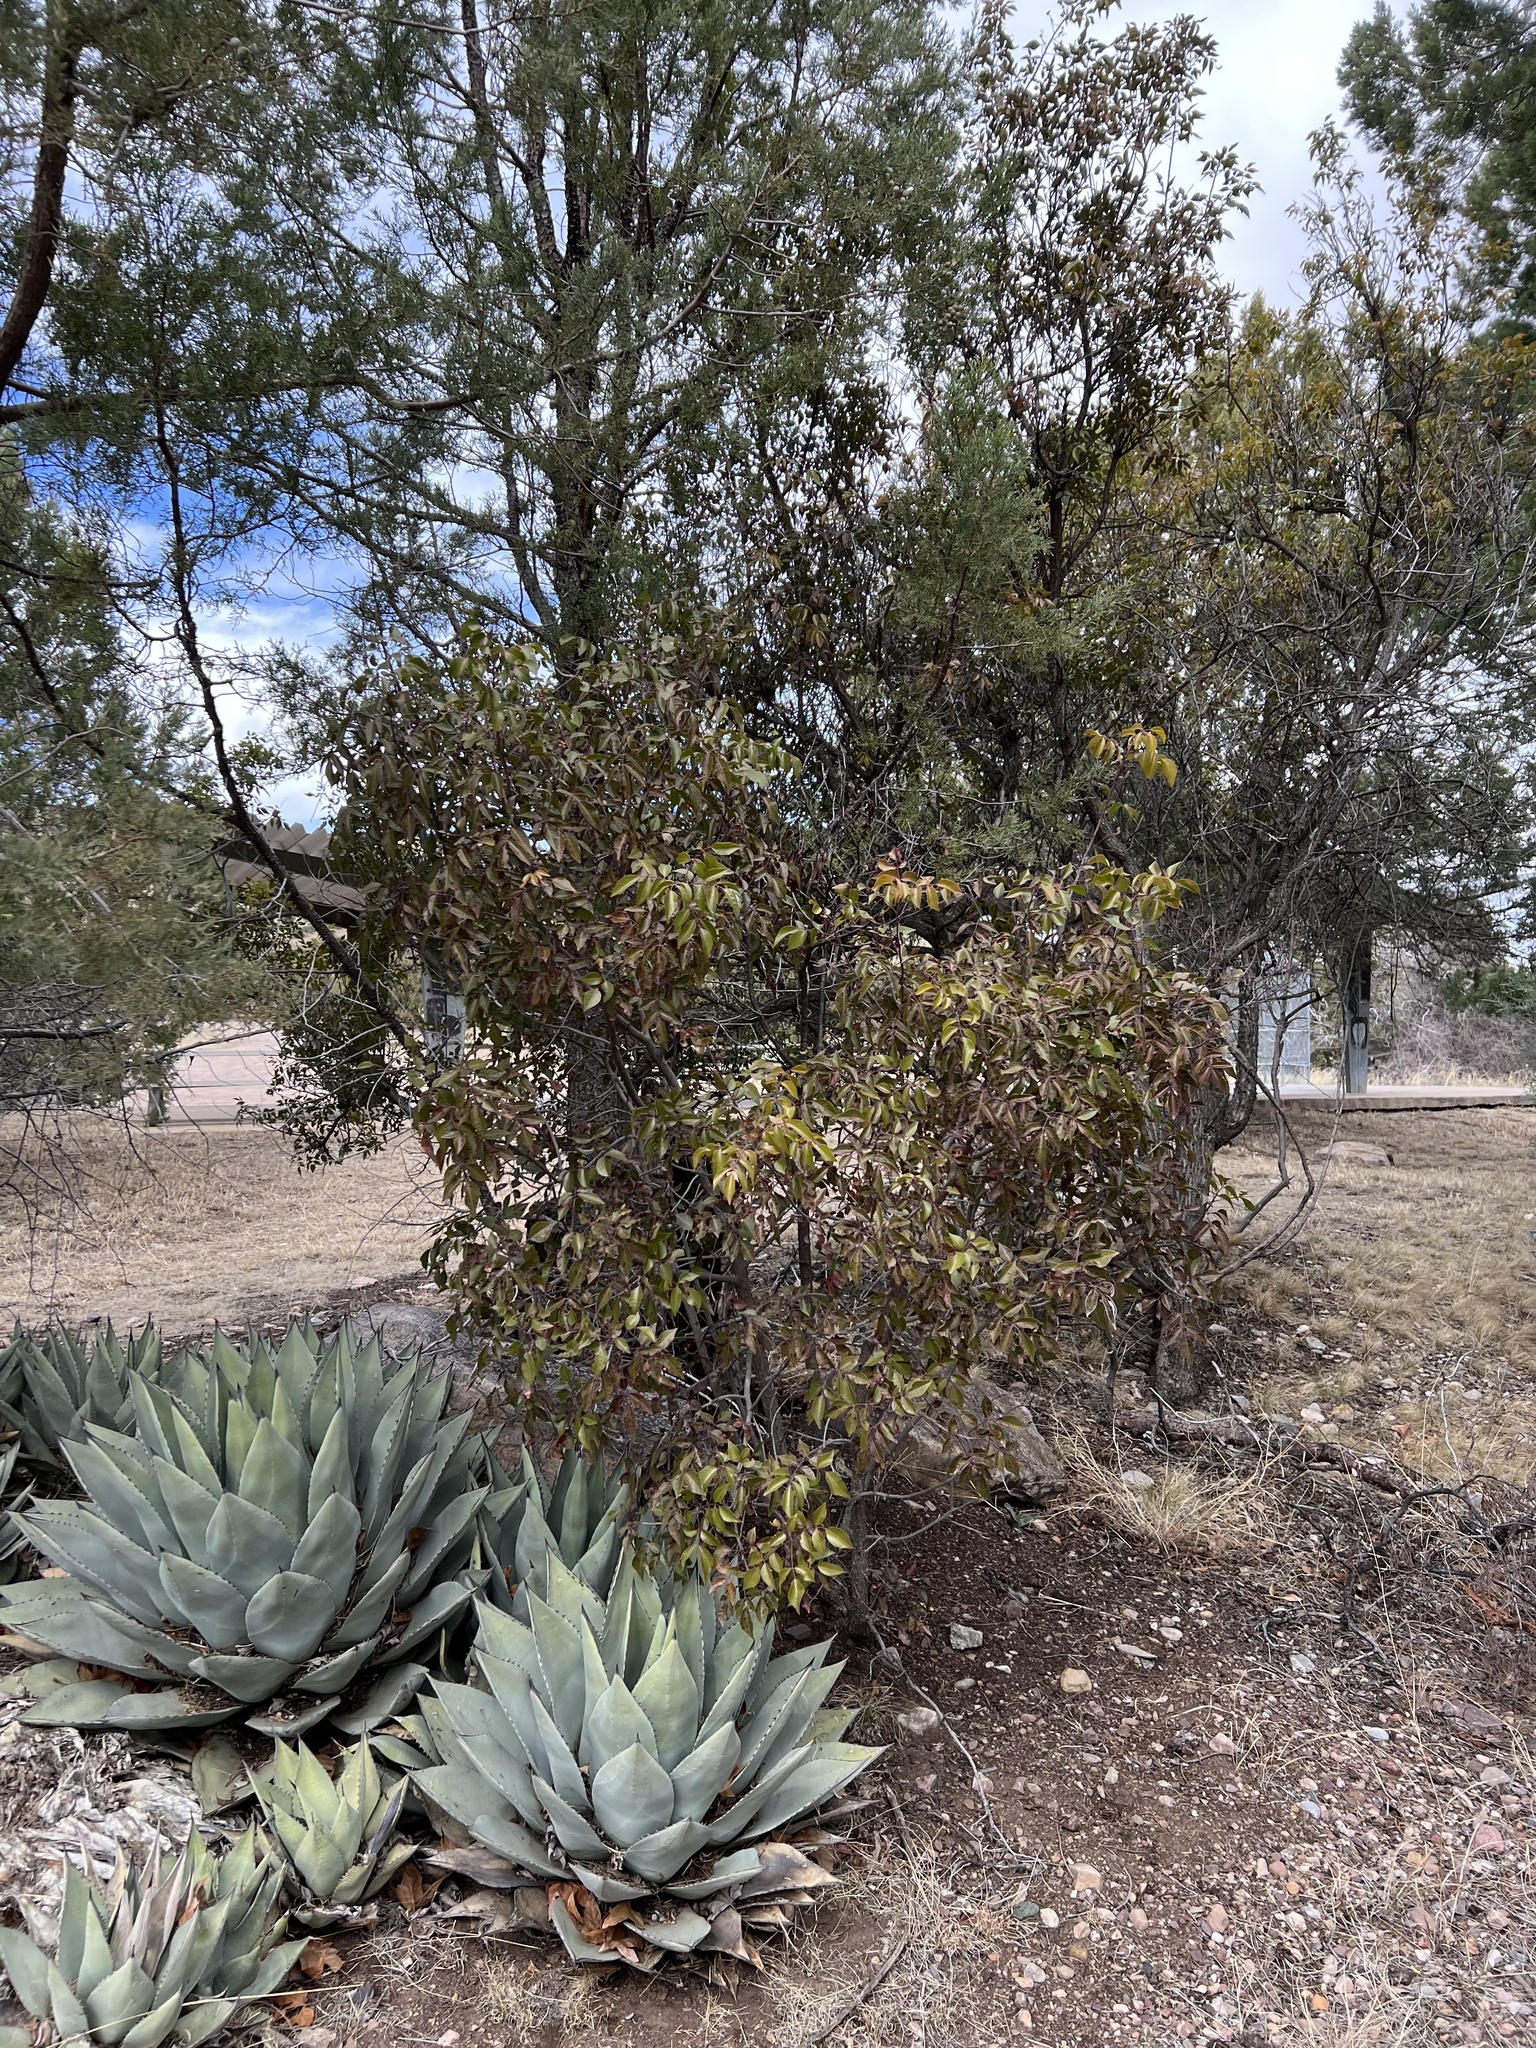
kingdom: Plantae
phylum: Tracheophyta
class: Magnoliopsida
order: Sapindales
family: Anacardiaceae
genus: Rhus
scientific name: Rhus virens
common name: Evergreen sumac
